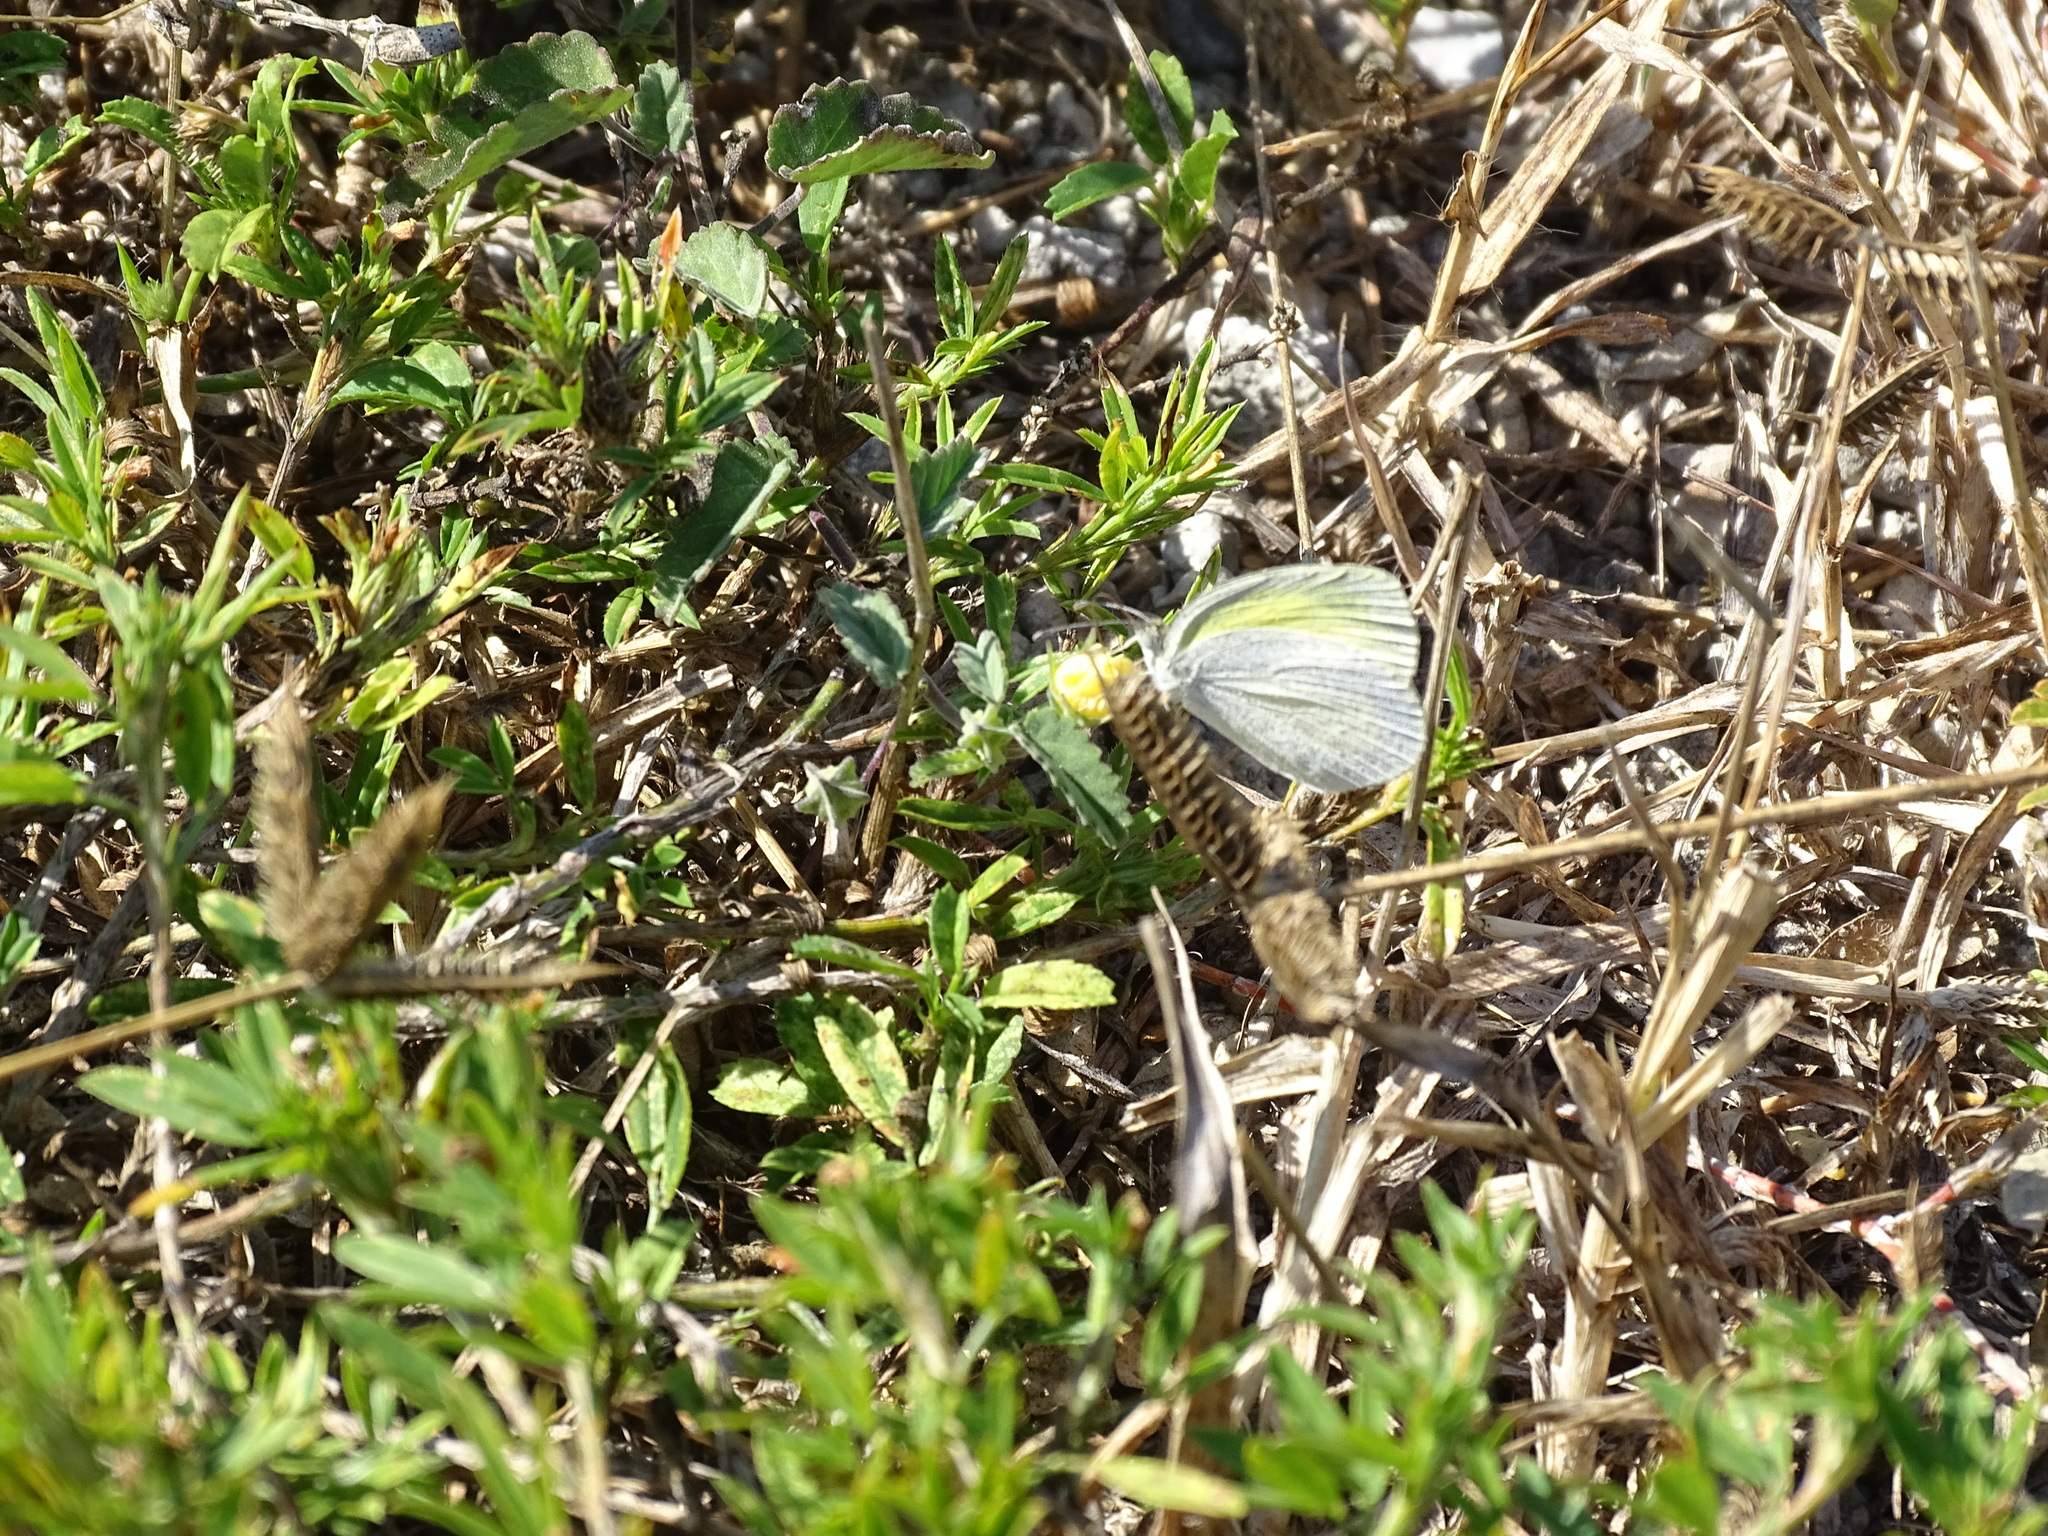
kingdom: Animalia
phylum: Arthropoda
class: Insecta
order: Lepidoptera
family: Pieridae
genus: Eurema
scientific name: Eurema daira
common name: Barred sulphur
